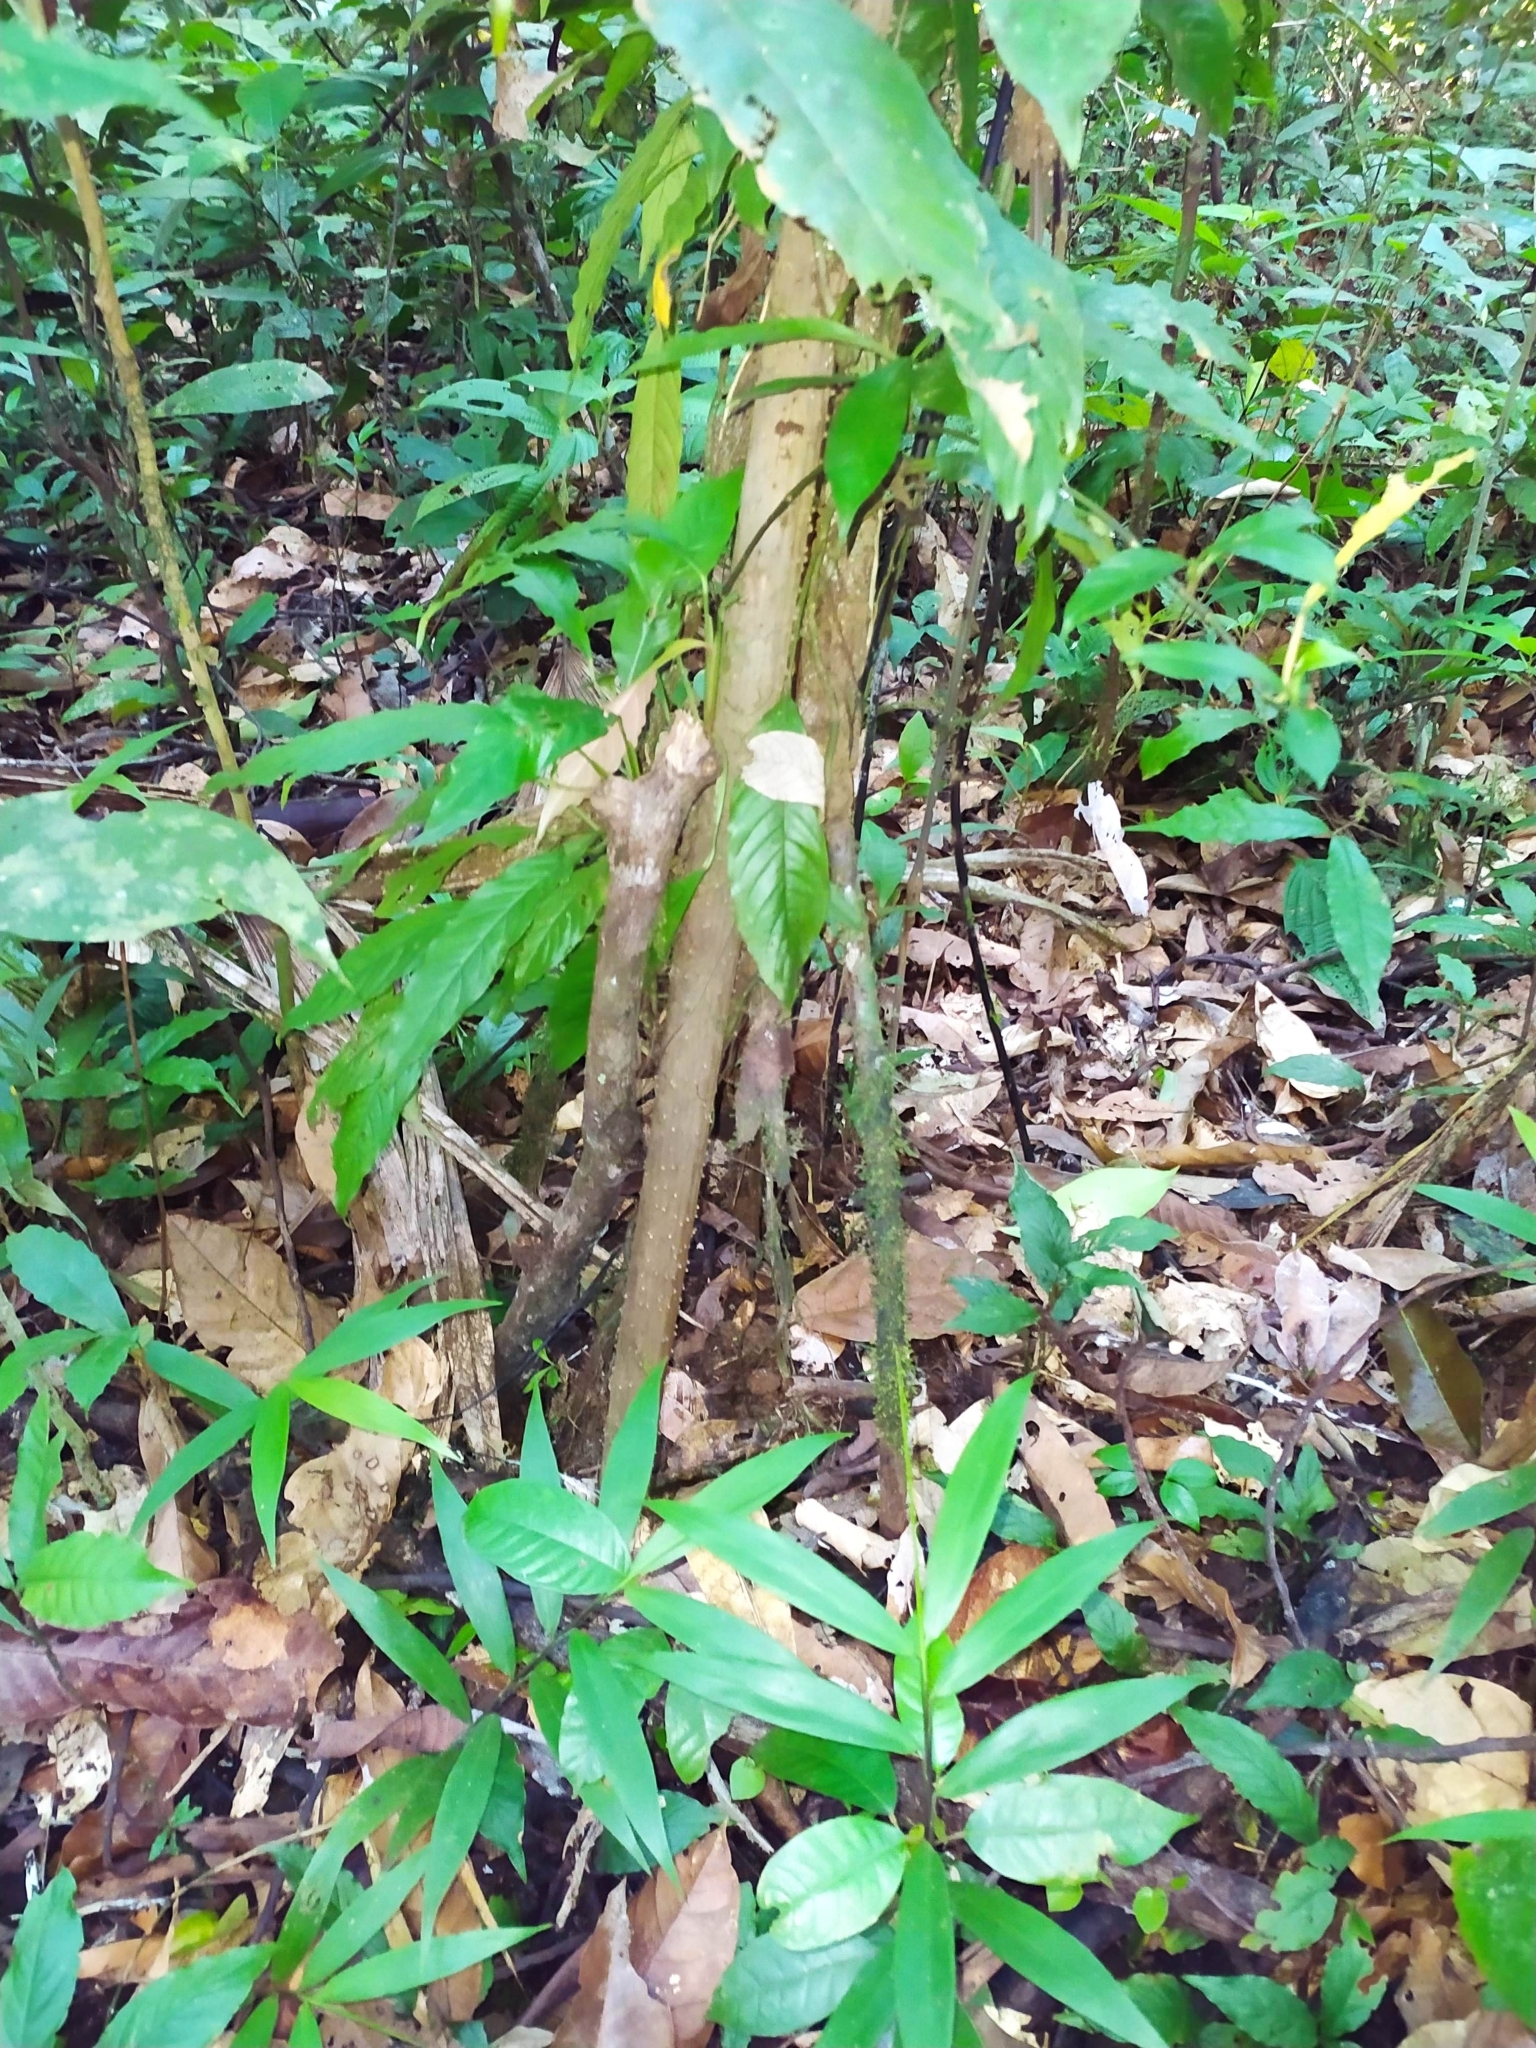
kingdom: Plantae
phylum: Tracheophyta
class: Liliopsida
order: Arecales
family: Arecaceae
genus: Socratea
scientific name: Socratea exorrhiza
